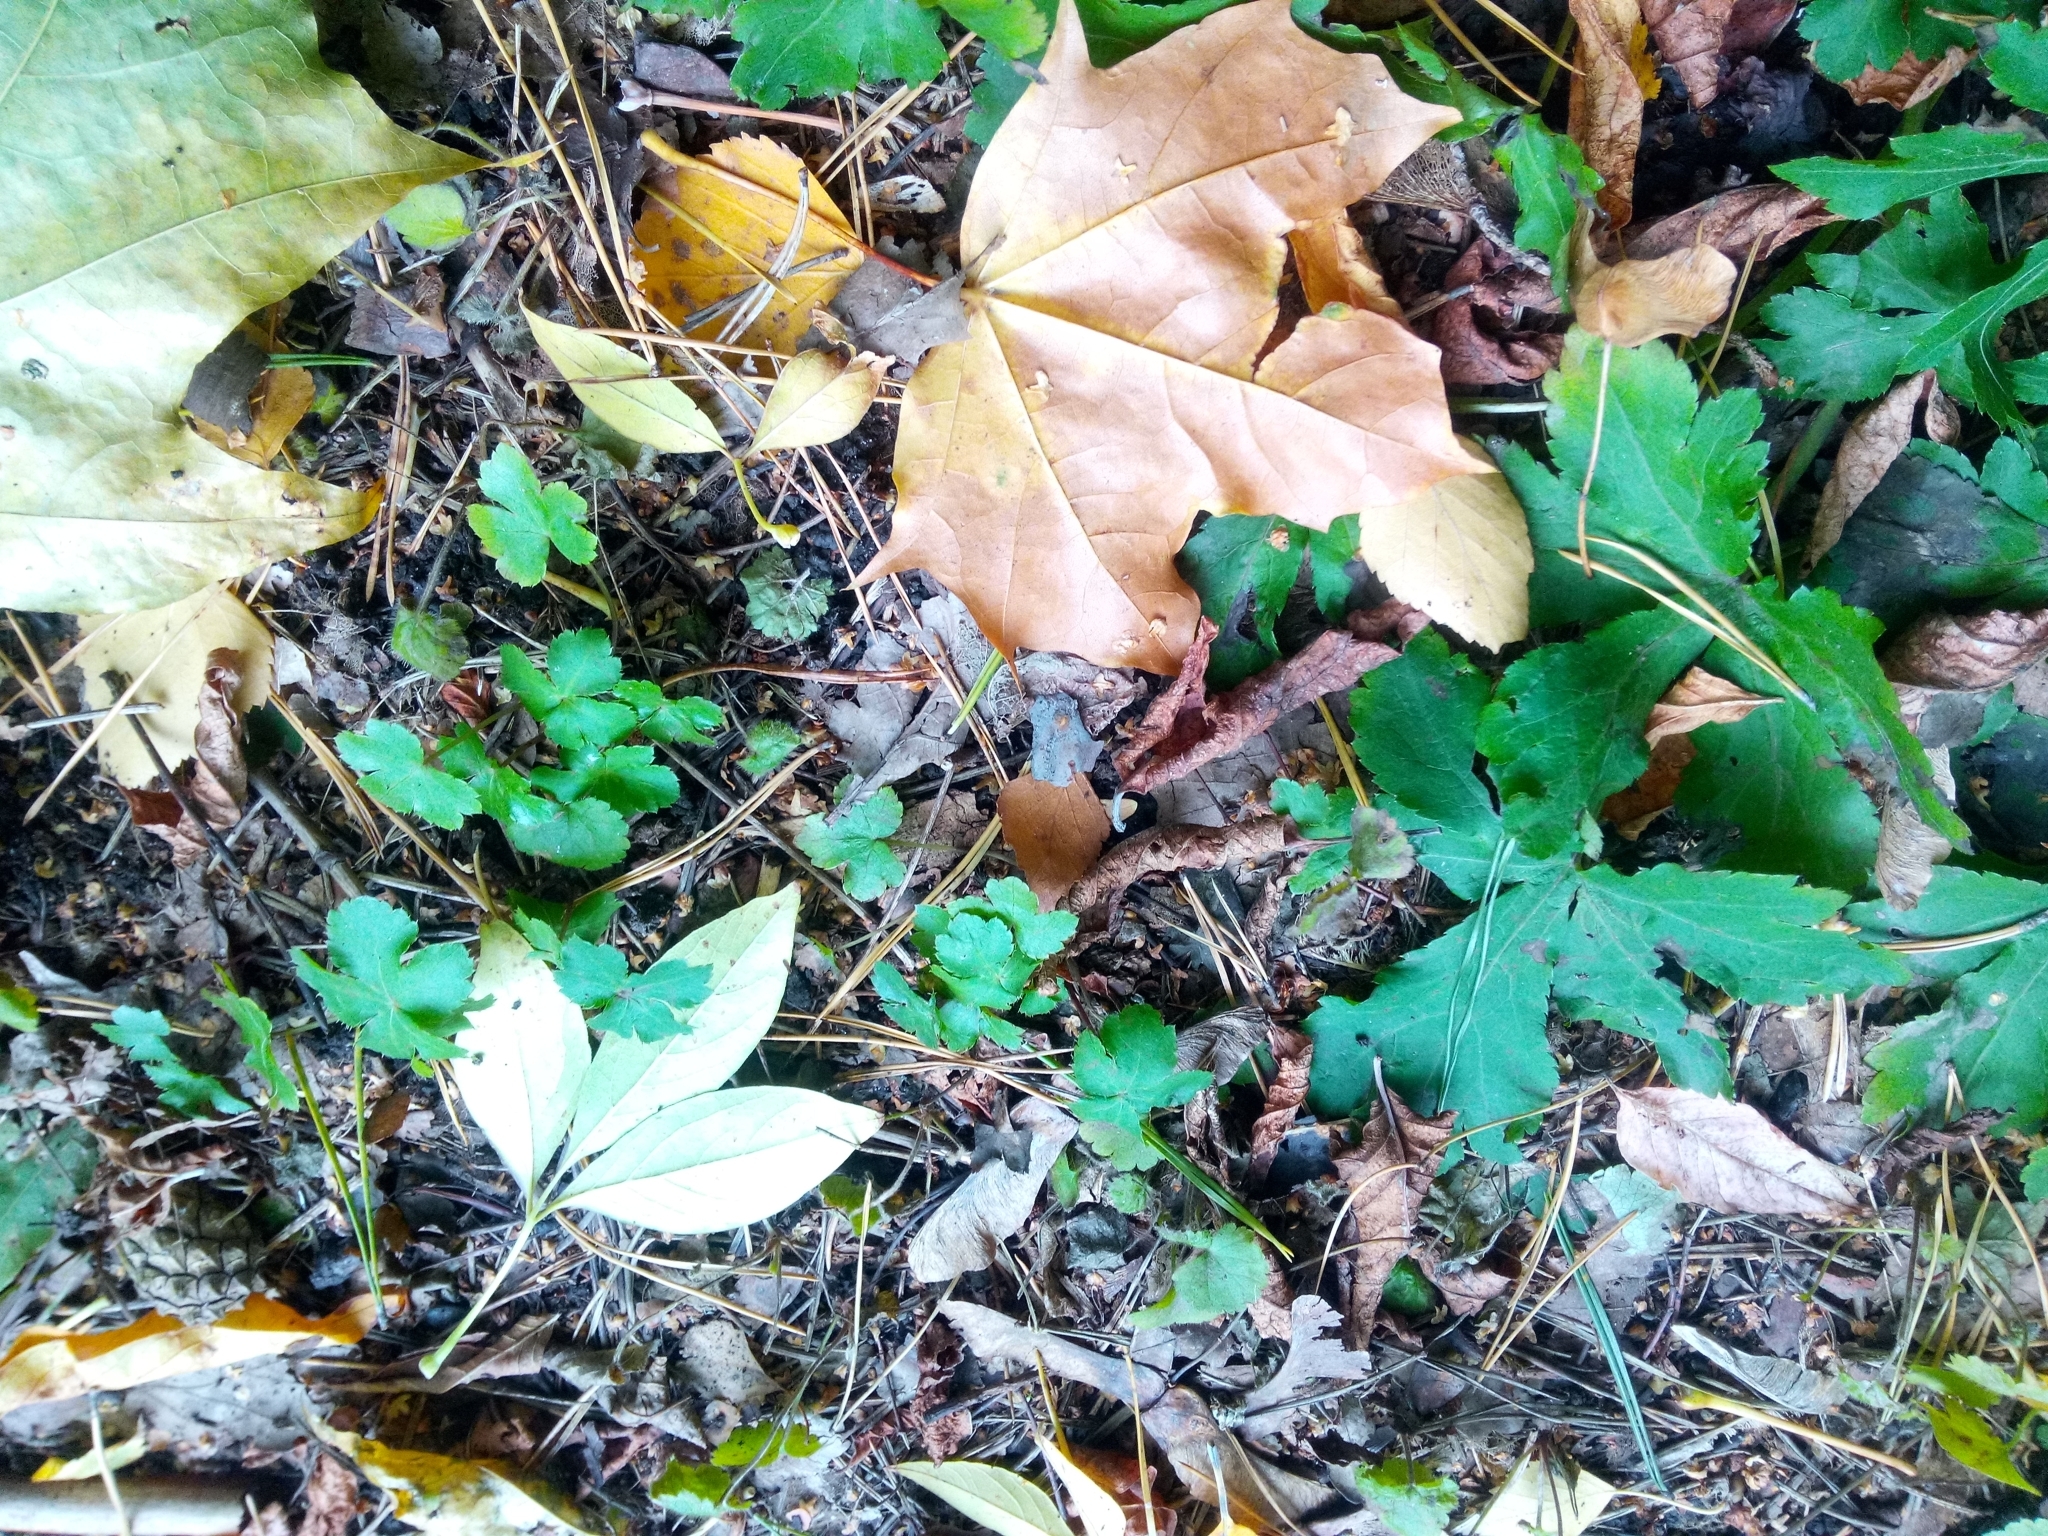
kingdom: Plantae
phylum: Tracheophyta
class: Magnoliopsida
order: Apiales
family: Apiaceae
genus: Sanicula
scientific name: Sanicula europaea
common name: Sanicle
